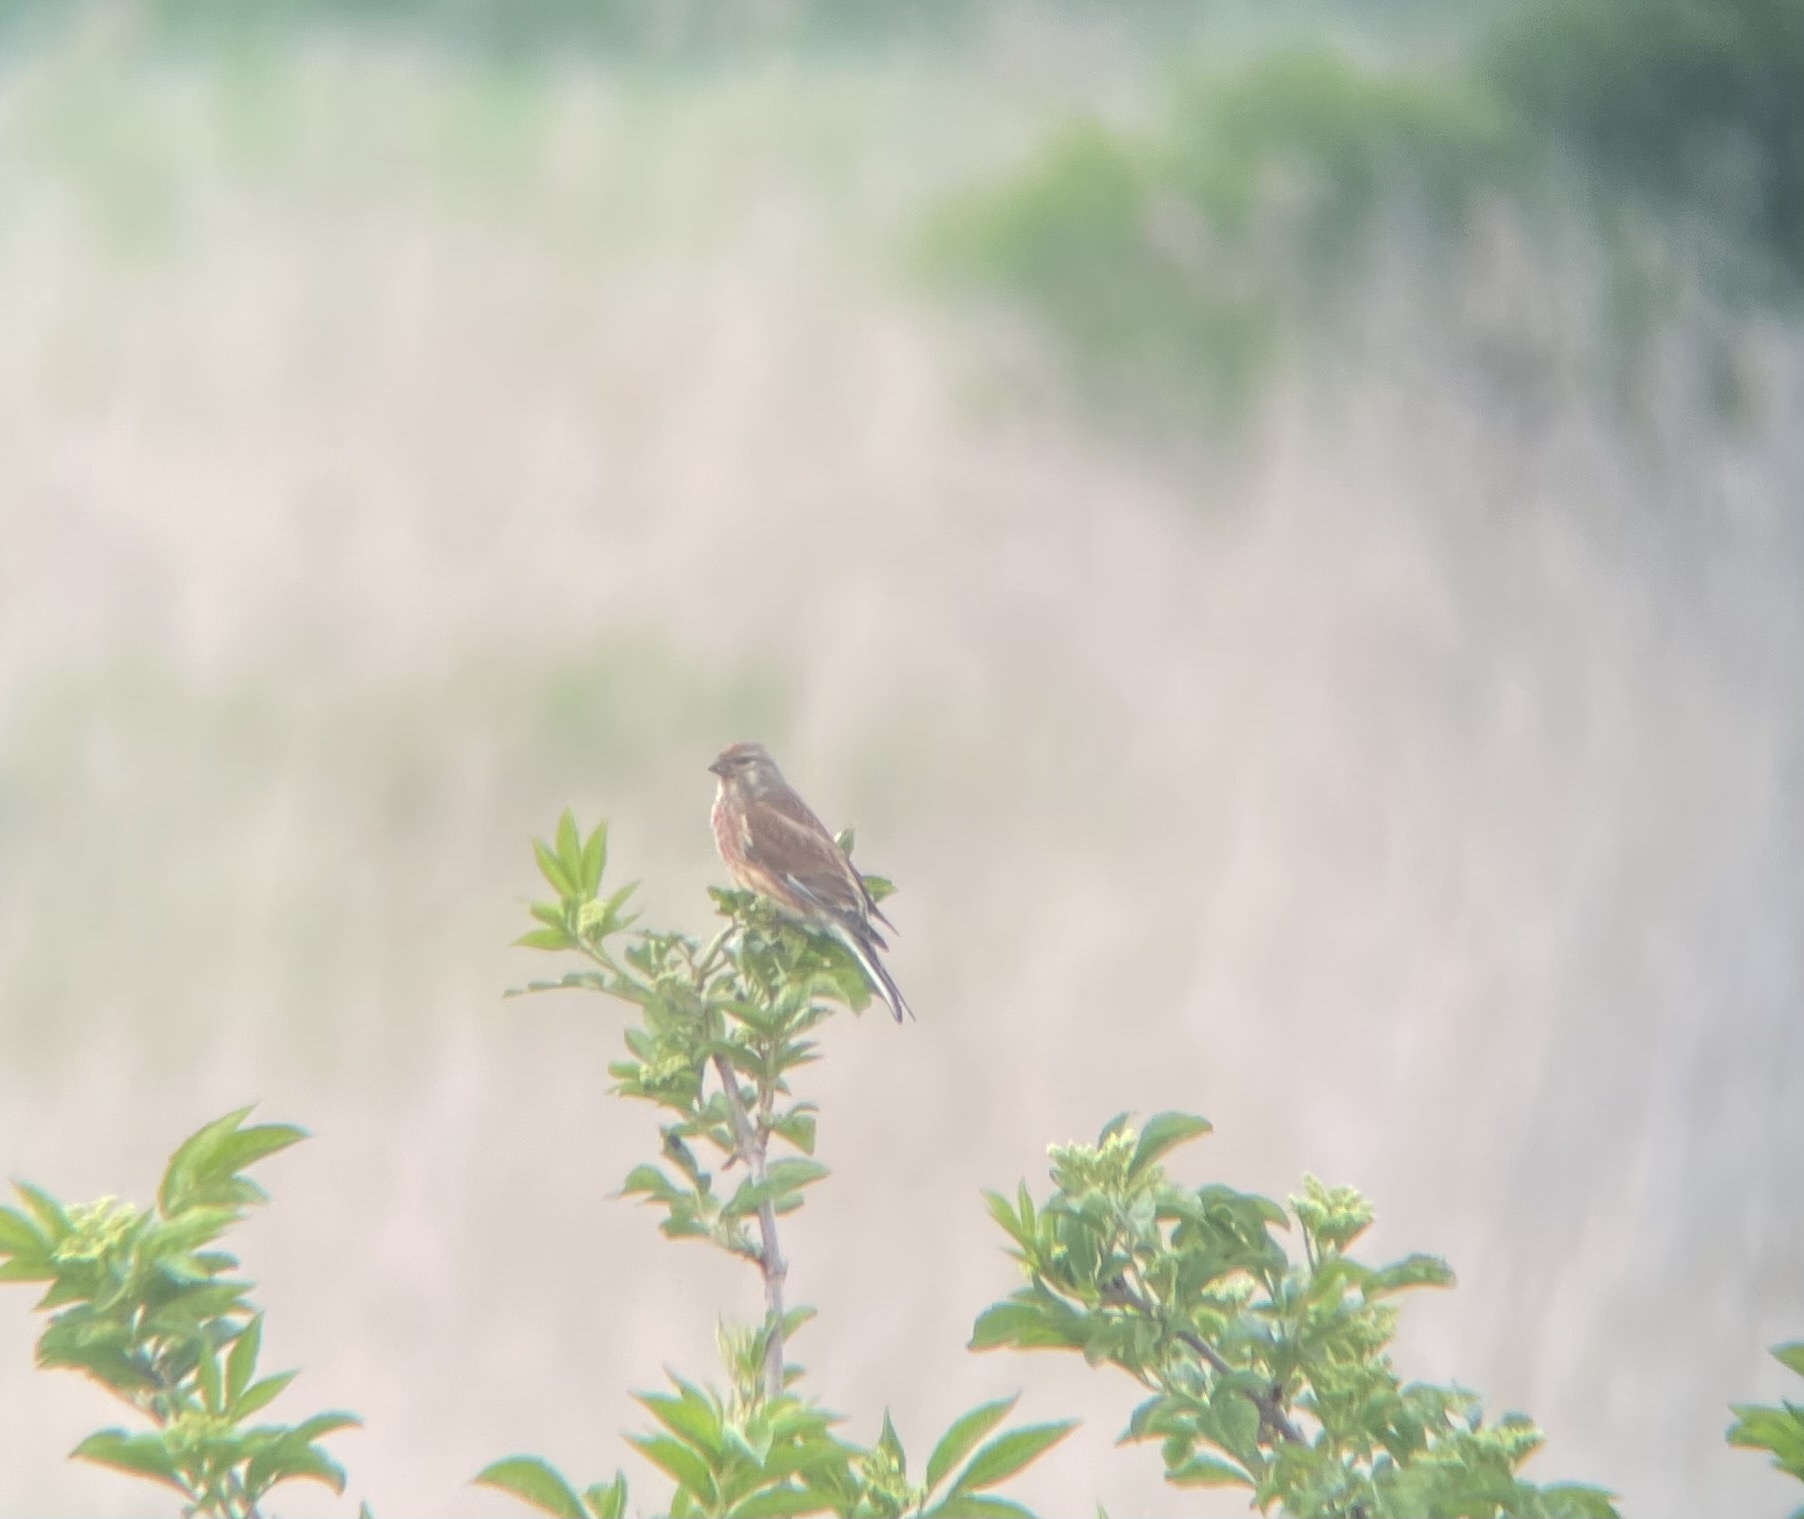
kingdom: Animalia
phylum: Chordata
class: Aves
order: Passeriformes
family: Fringillidae
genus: Linaria
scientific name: Linaria cannabina
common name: Common linnet
